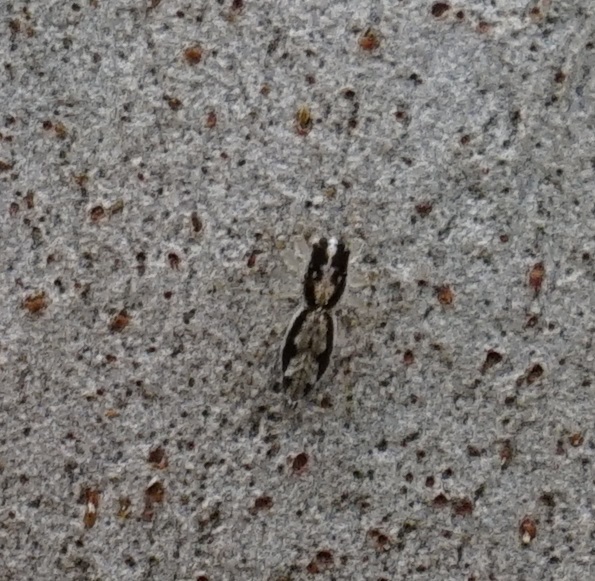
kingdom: Animalia
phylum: Arthropoda
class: Arachnida
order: Araneae
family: Salticidae
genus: Apricia
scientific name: Apricia bracteata
